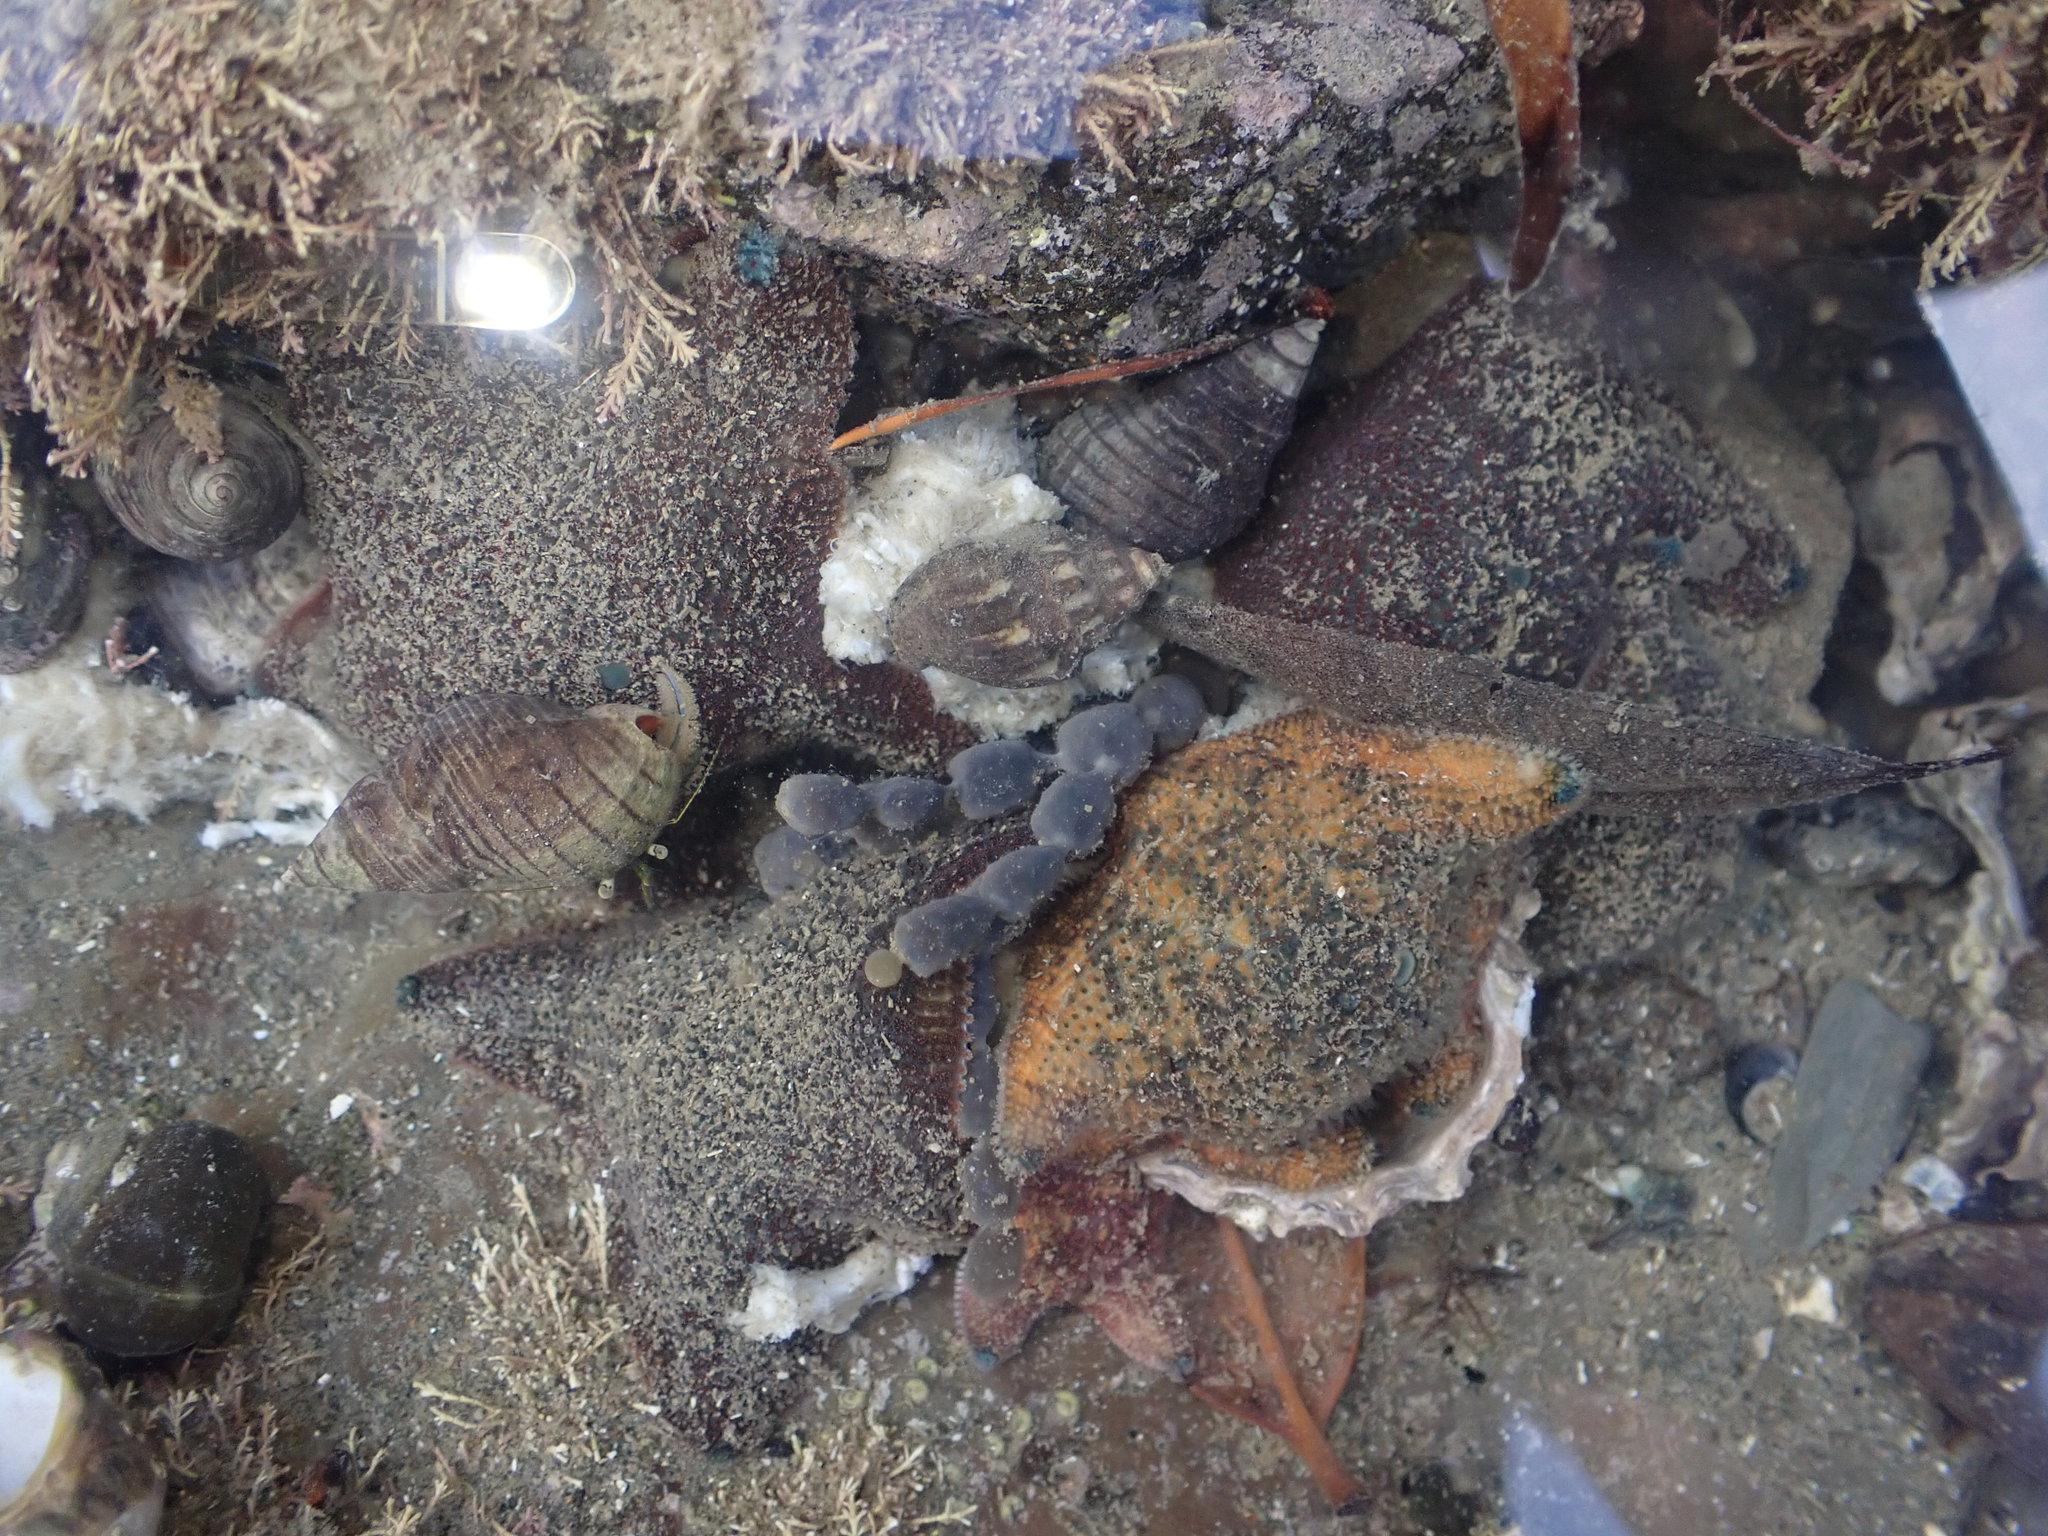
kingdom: Animalia
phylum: Echinodermata
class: Asteroidea
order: Valvatida
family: Asterinidae
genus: Patiriella
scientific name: Patiriella regularis
